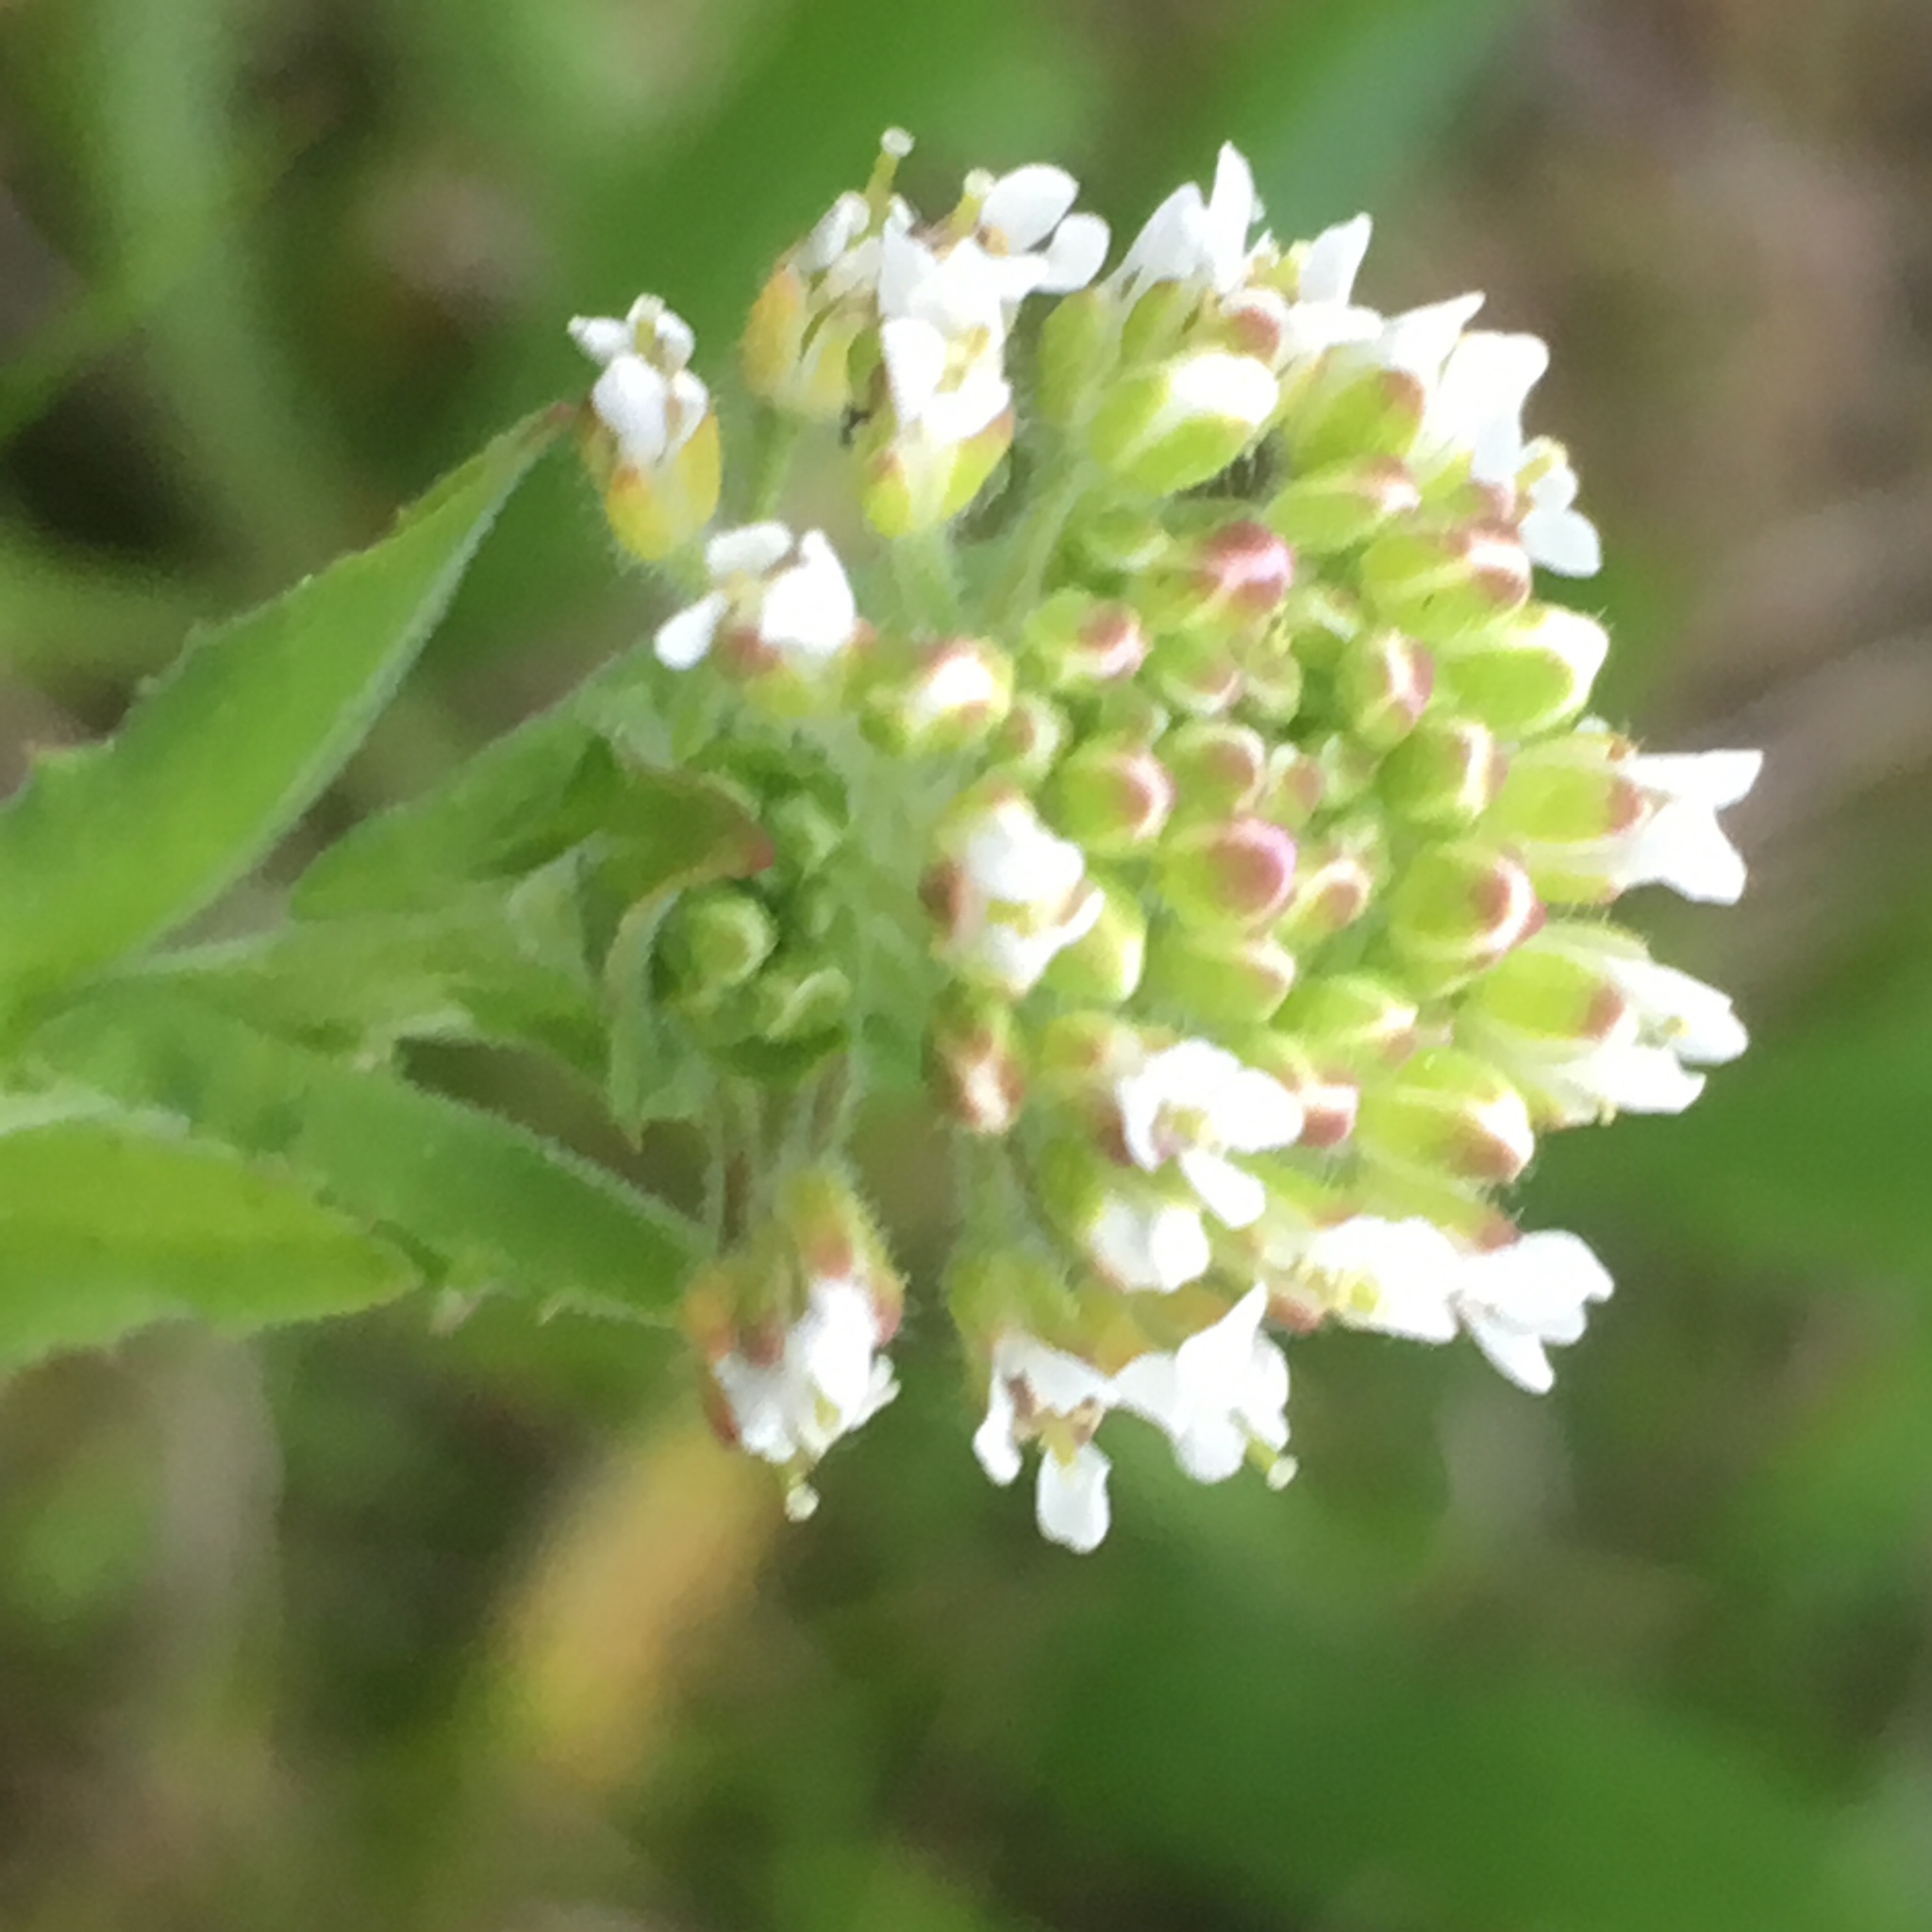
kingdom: Plantae
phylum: Tracheophyta
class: Magnoliopsida
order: Brassicales
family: Brassicaceae
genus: Lepidium
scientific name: Lepidium campestre
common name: Field pepperwort
